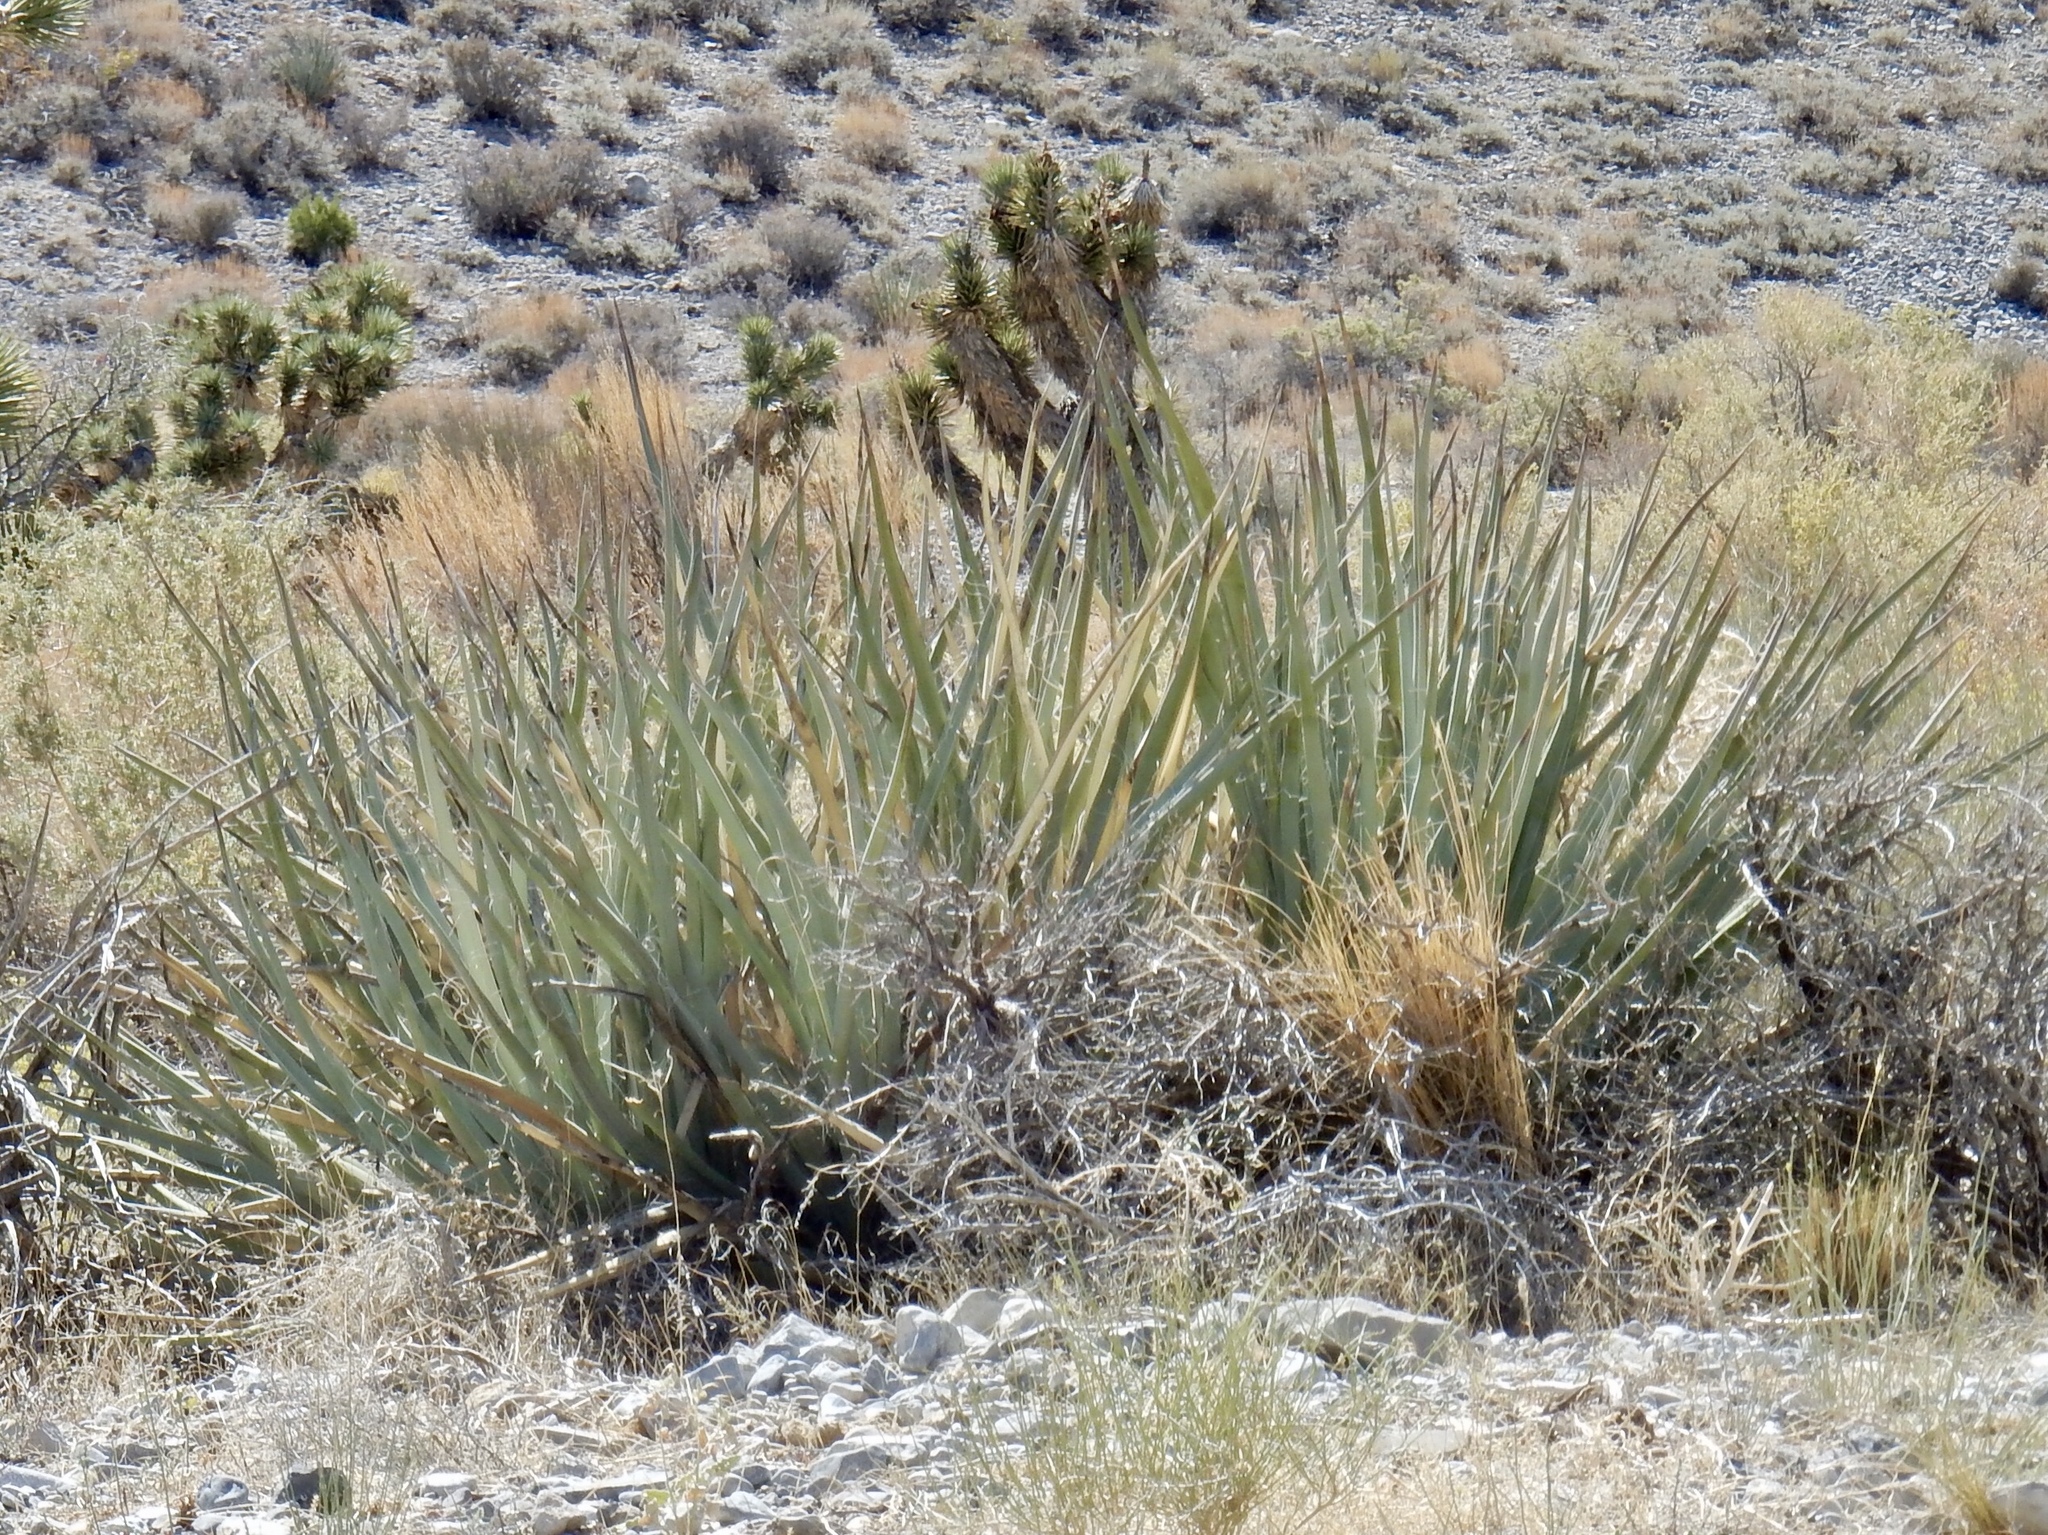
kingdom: Plantae
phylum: Tracheophyta
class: Liliopsida
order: Asparagales
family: Asparagaceae
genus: Yucca
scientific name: Yucca baccata
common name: Banana yucca
